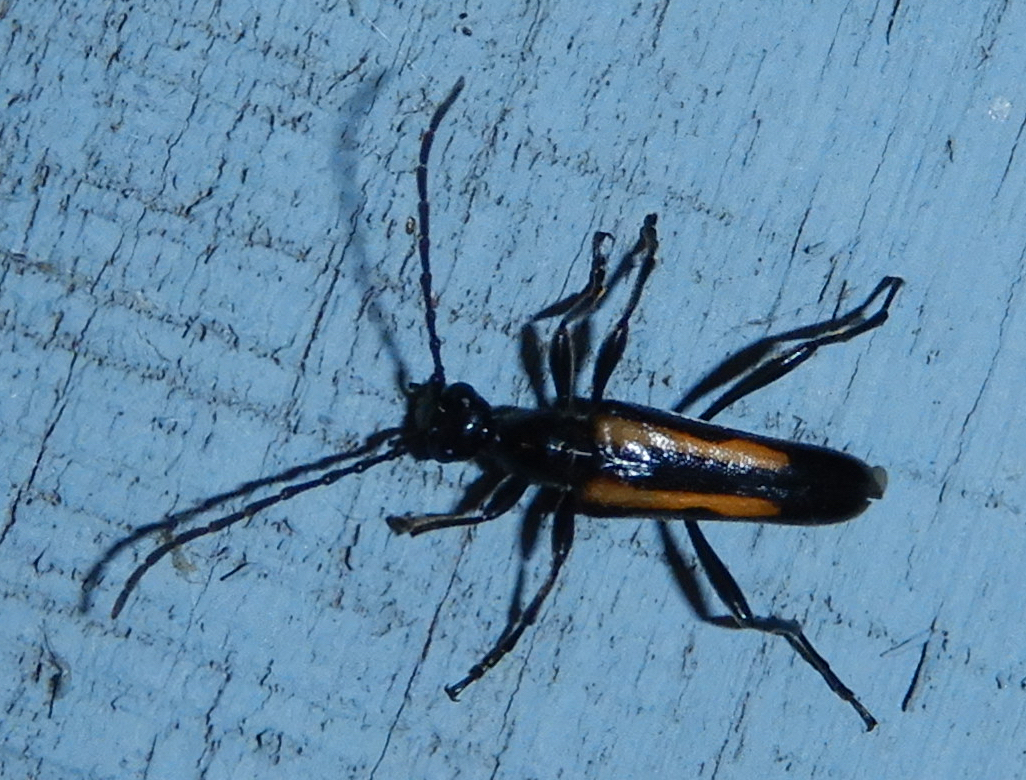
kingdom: Animalia
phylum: Arthropoda
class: Insecta
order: Coleoptera
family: Cerambycidae
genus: Strangalepta
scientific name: Strangalepta abbreviata
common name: Strangalepta flower longhorn beetle
